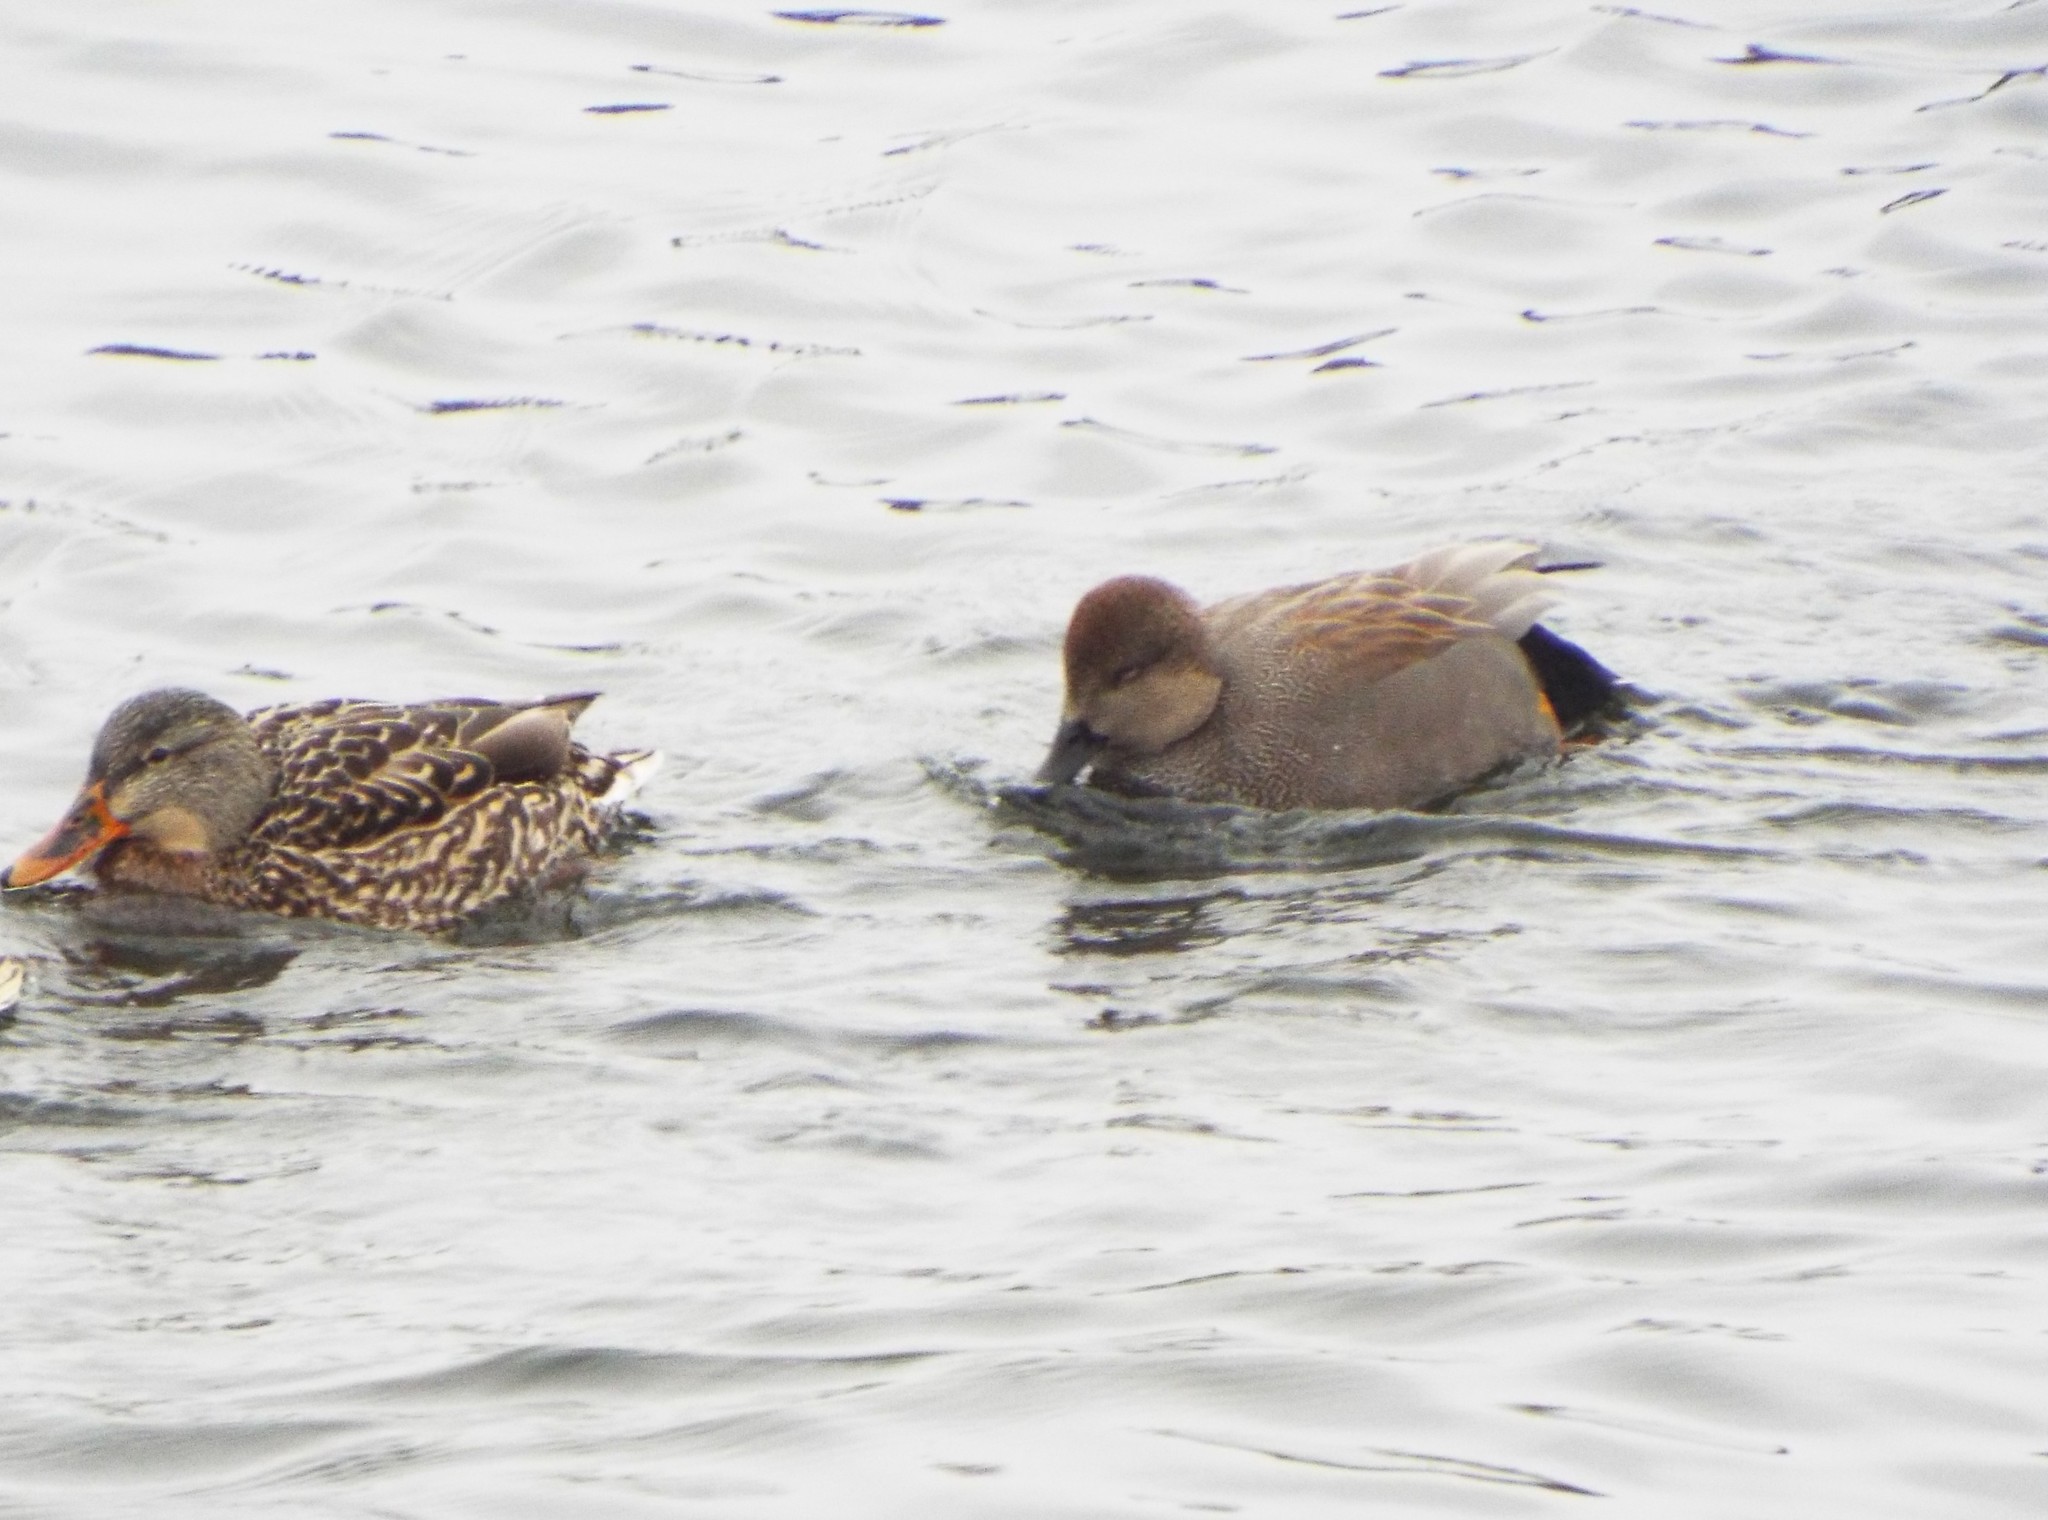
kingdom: Animalia
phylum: Chordata
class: Aves
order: Anseriformes
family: Anatidae
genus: Mareca
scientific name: Mareca strepera
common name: Gadwall
